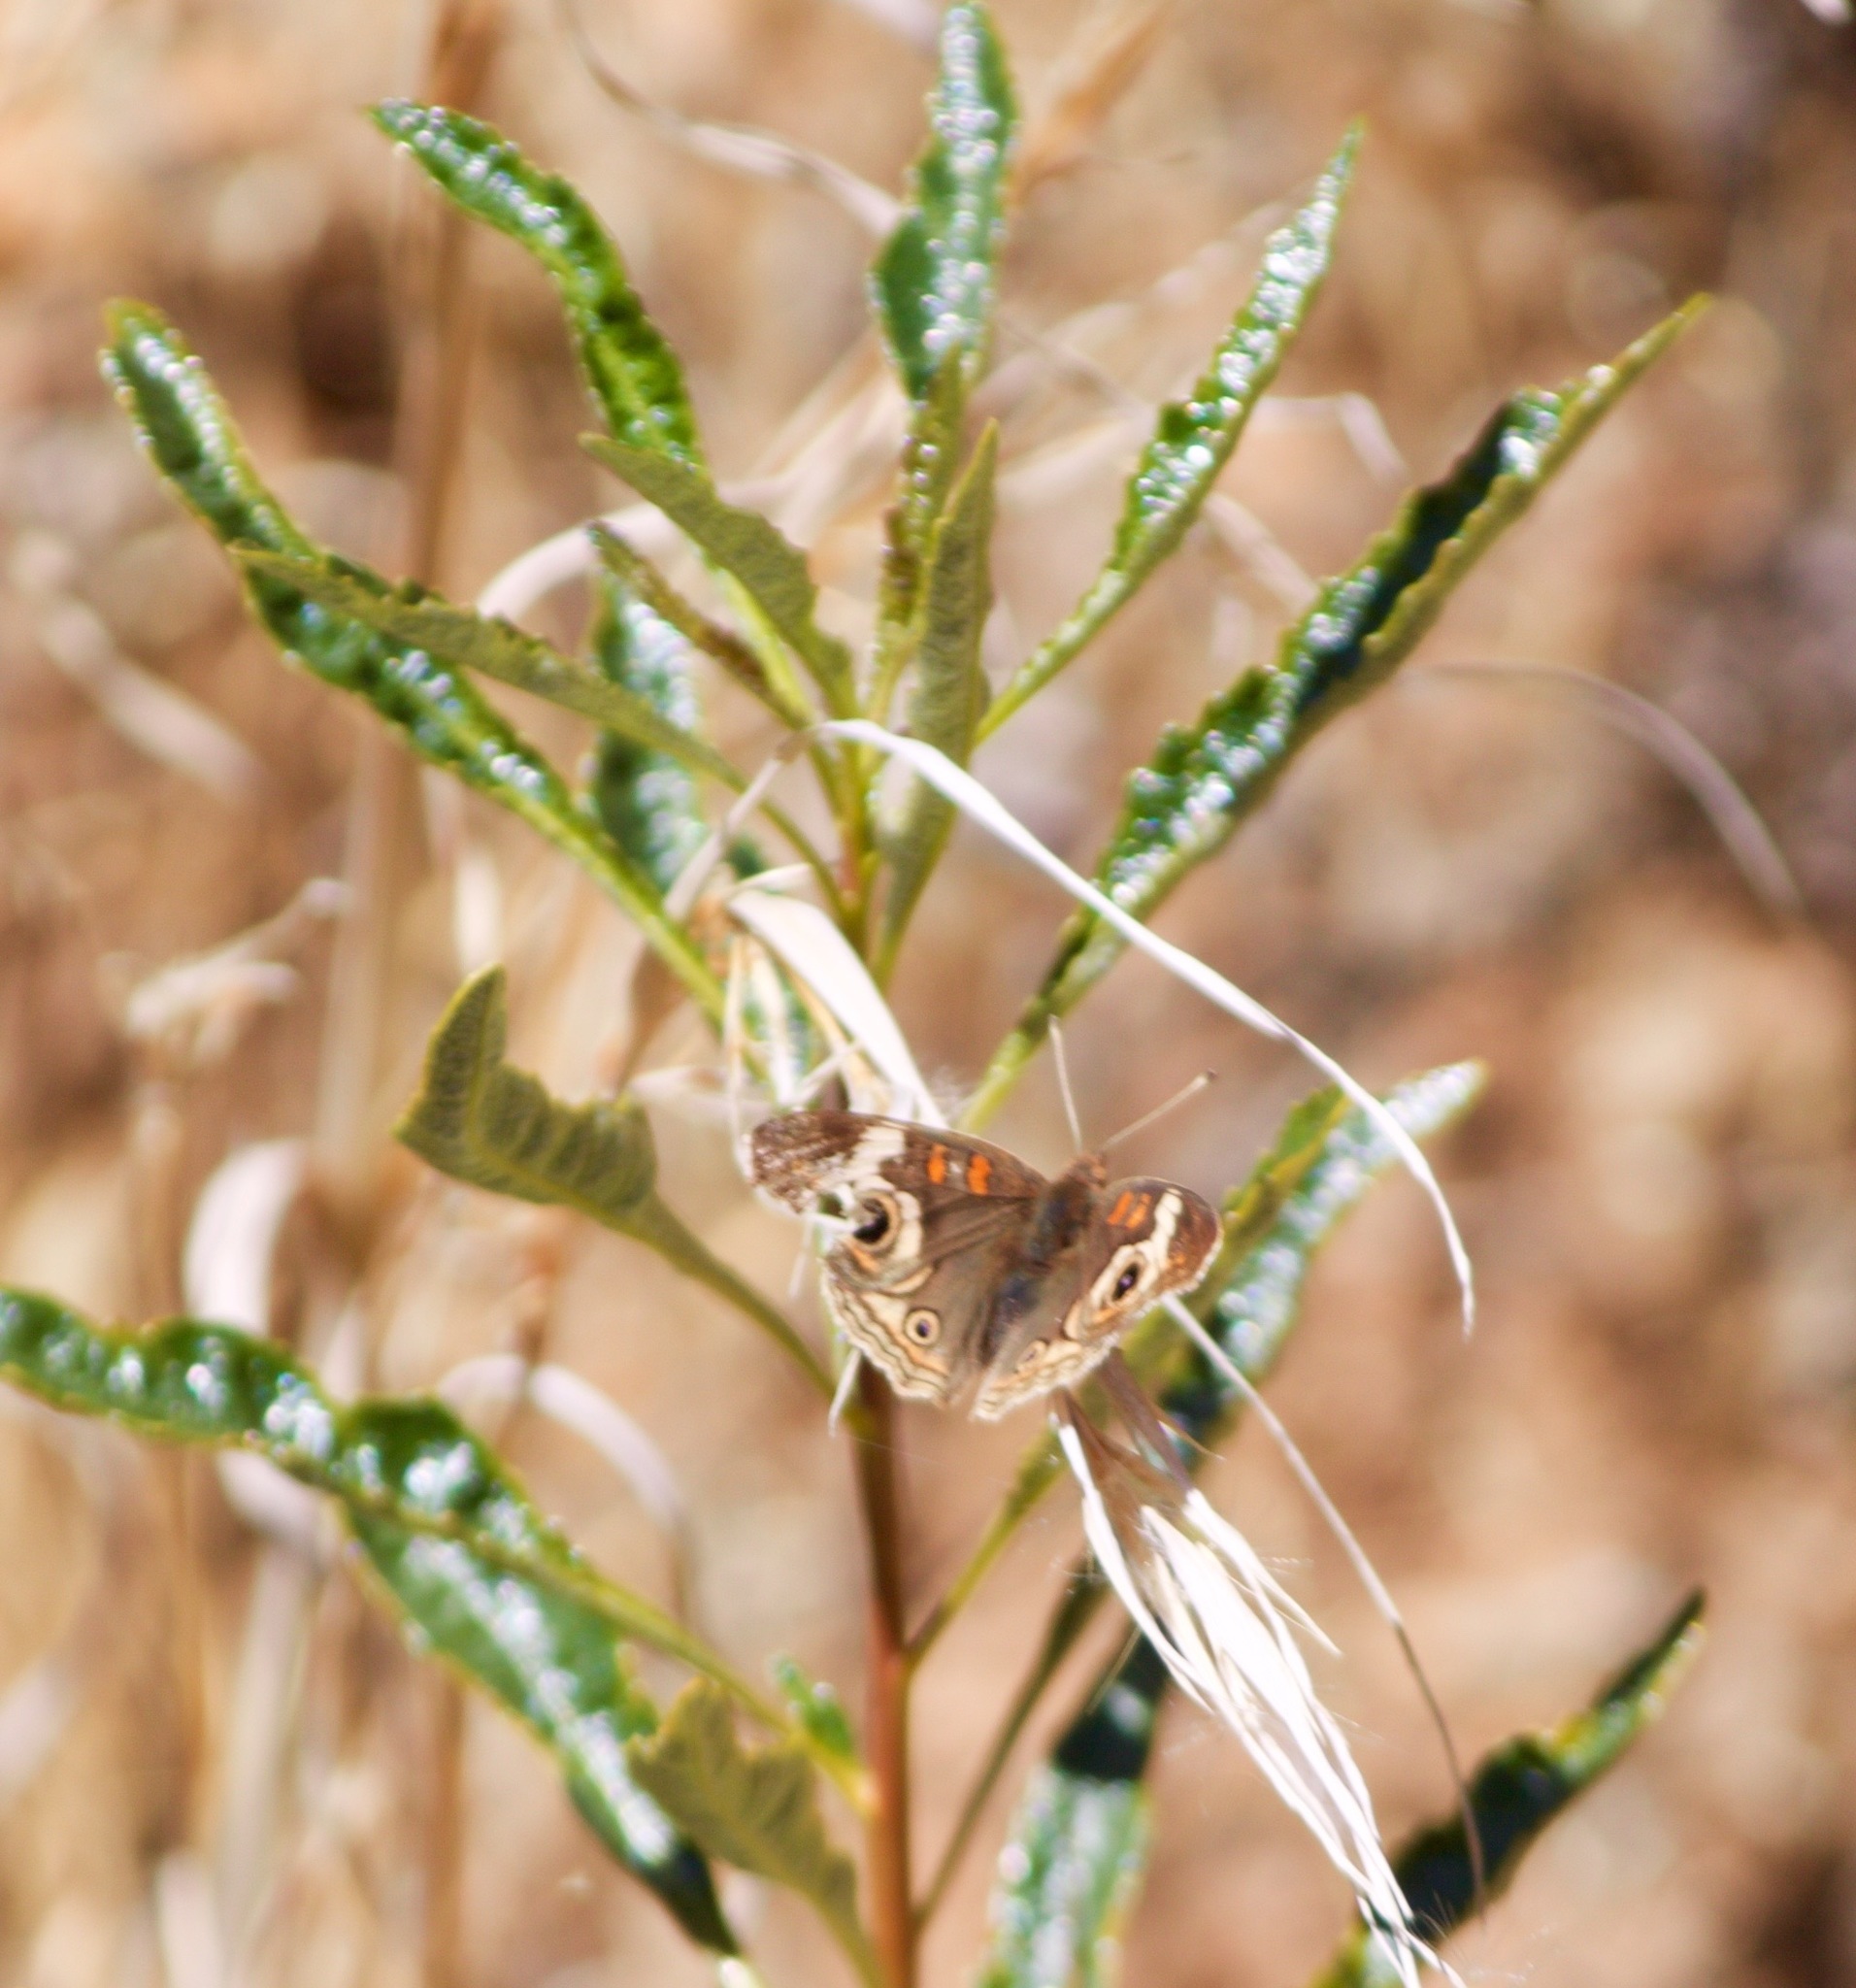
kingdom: Animalia
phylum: Arthropoda
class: Insecta
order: Lepidoptera
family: Nymphalidae
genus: Junonia
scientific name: Junonia grisea
